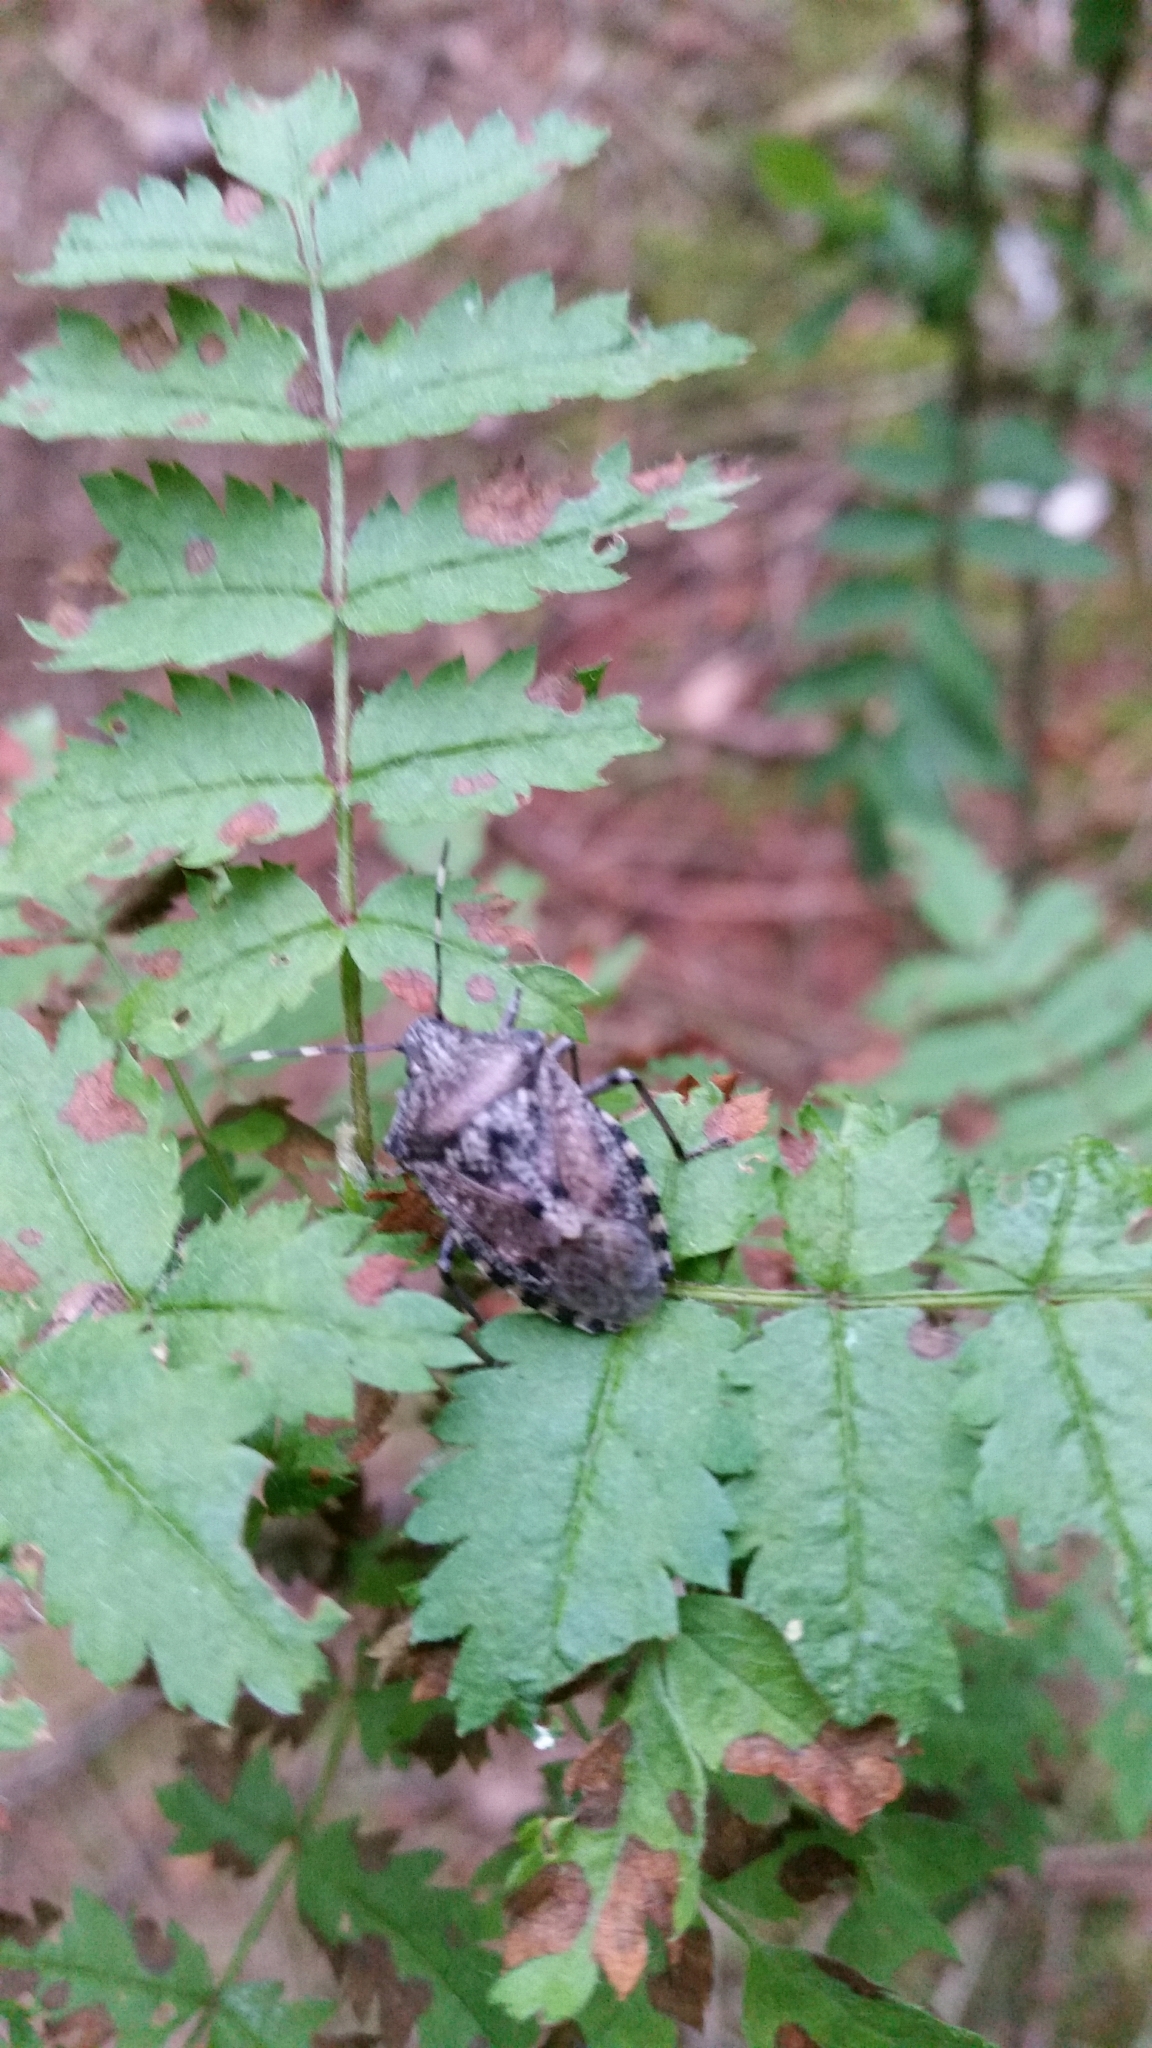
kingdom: Animalia
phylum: Arthropoda
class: Insecta
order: Hemiptera
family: Pentatomidae
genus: Rhaphigaster
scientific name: Rhaphigaster nebulosa
